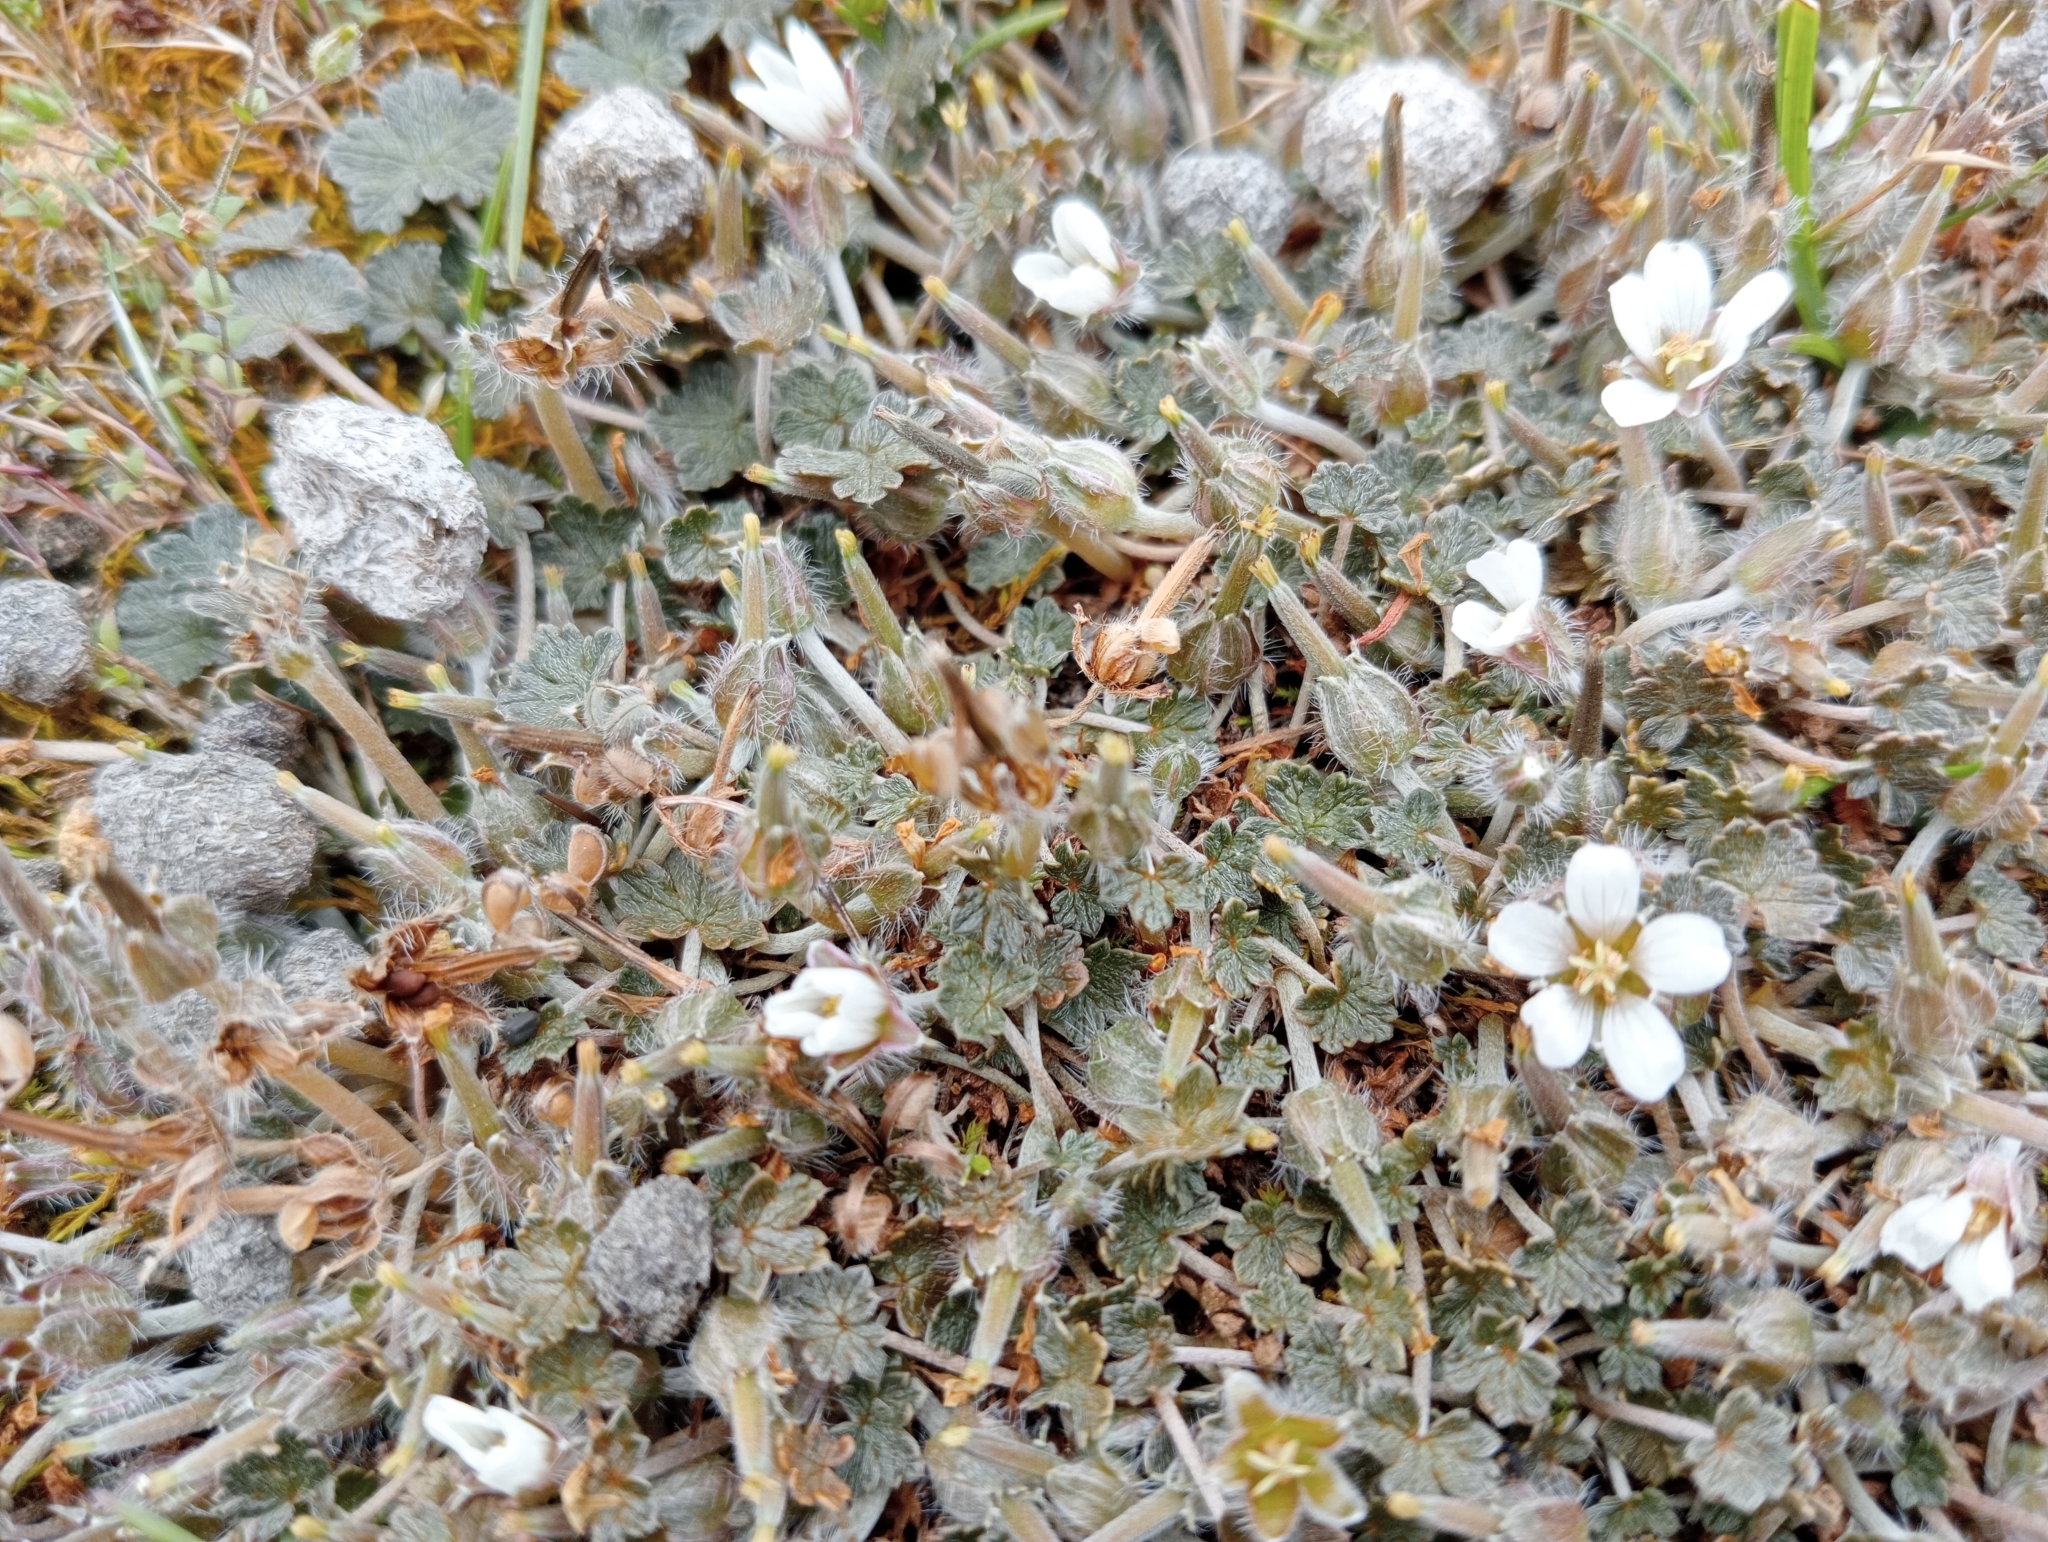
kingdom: Plantae
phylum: Tracheophyta
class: Magnoliopsida
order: Geraniales
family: Geraniaceae
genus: Geranium
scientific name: Geranium brevicaule
